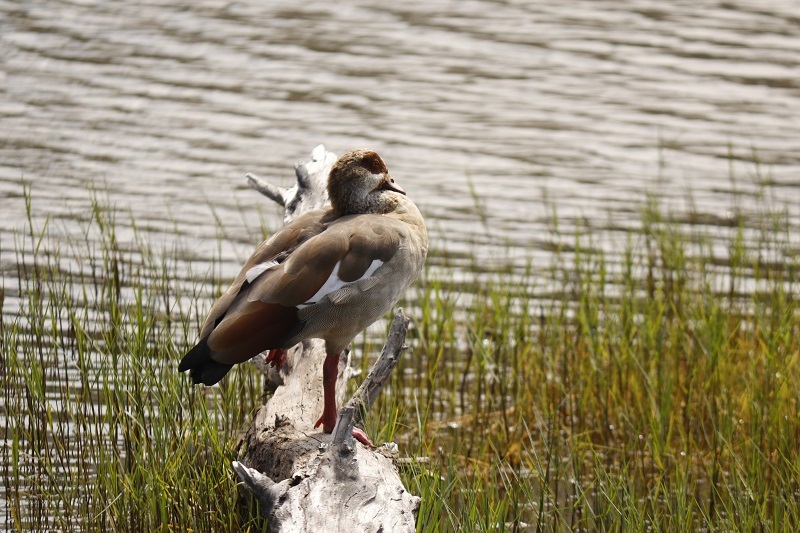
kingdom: Animalia
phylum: Chordata
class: Aves
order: Anseriformes
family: Anatidae
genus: Alopochen
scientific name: Alopochen aegyptiaca
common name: Egyptian goose
